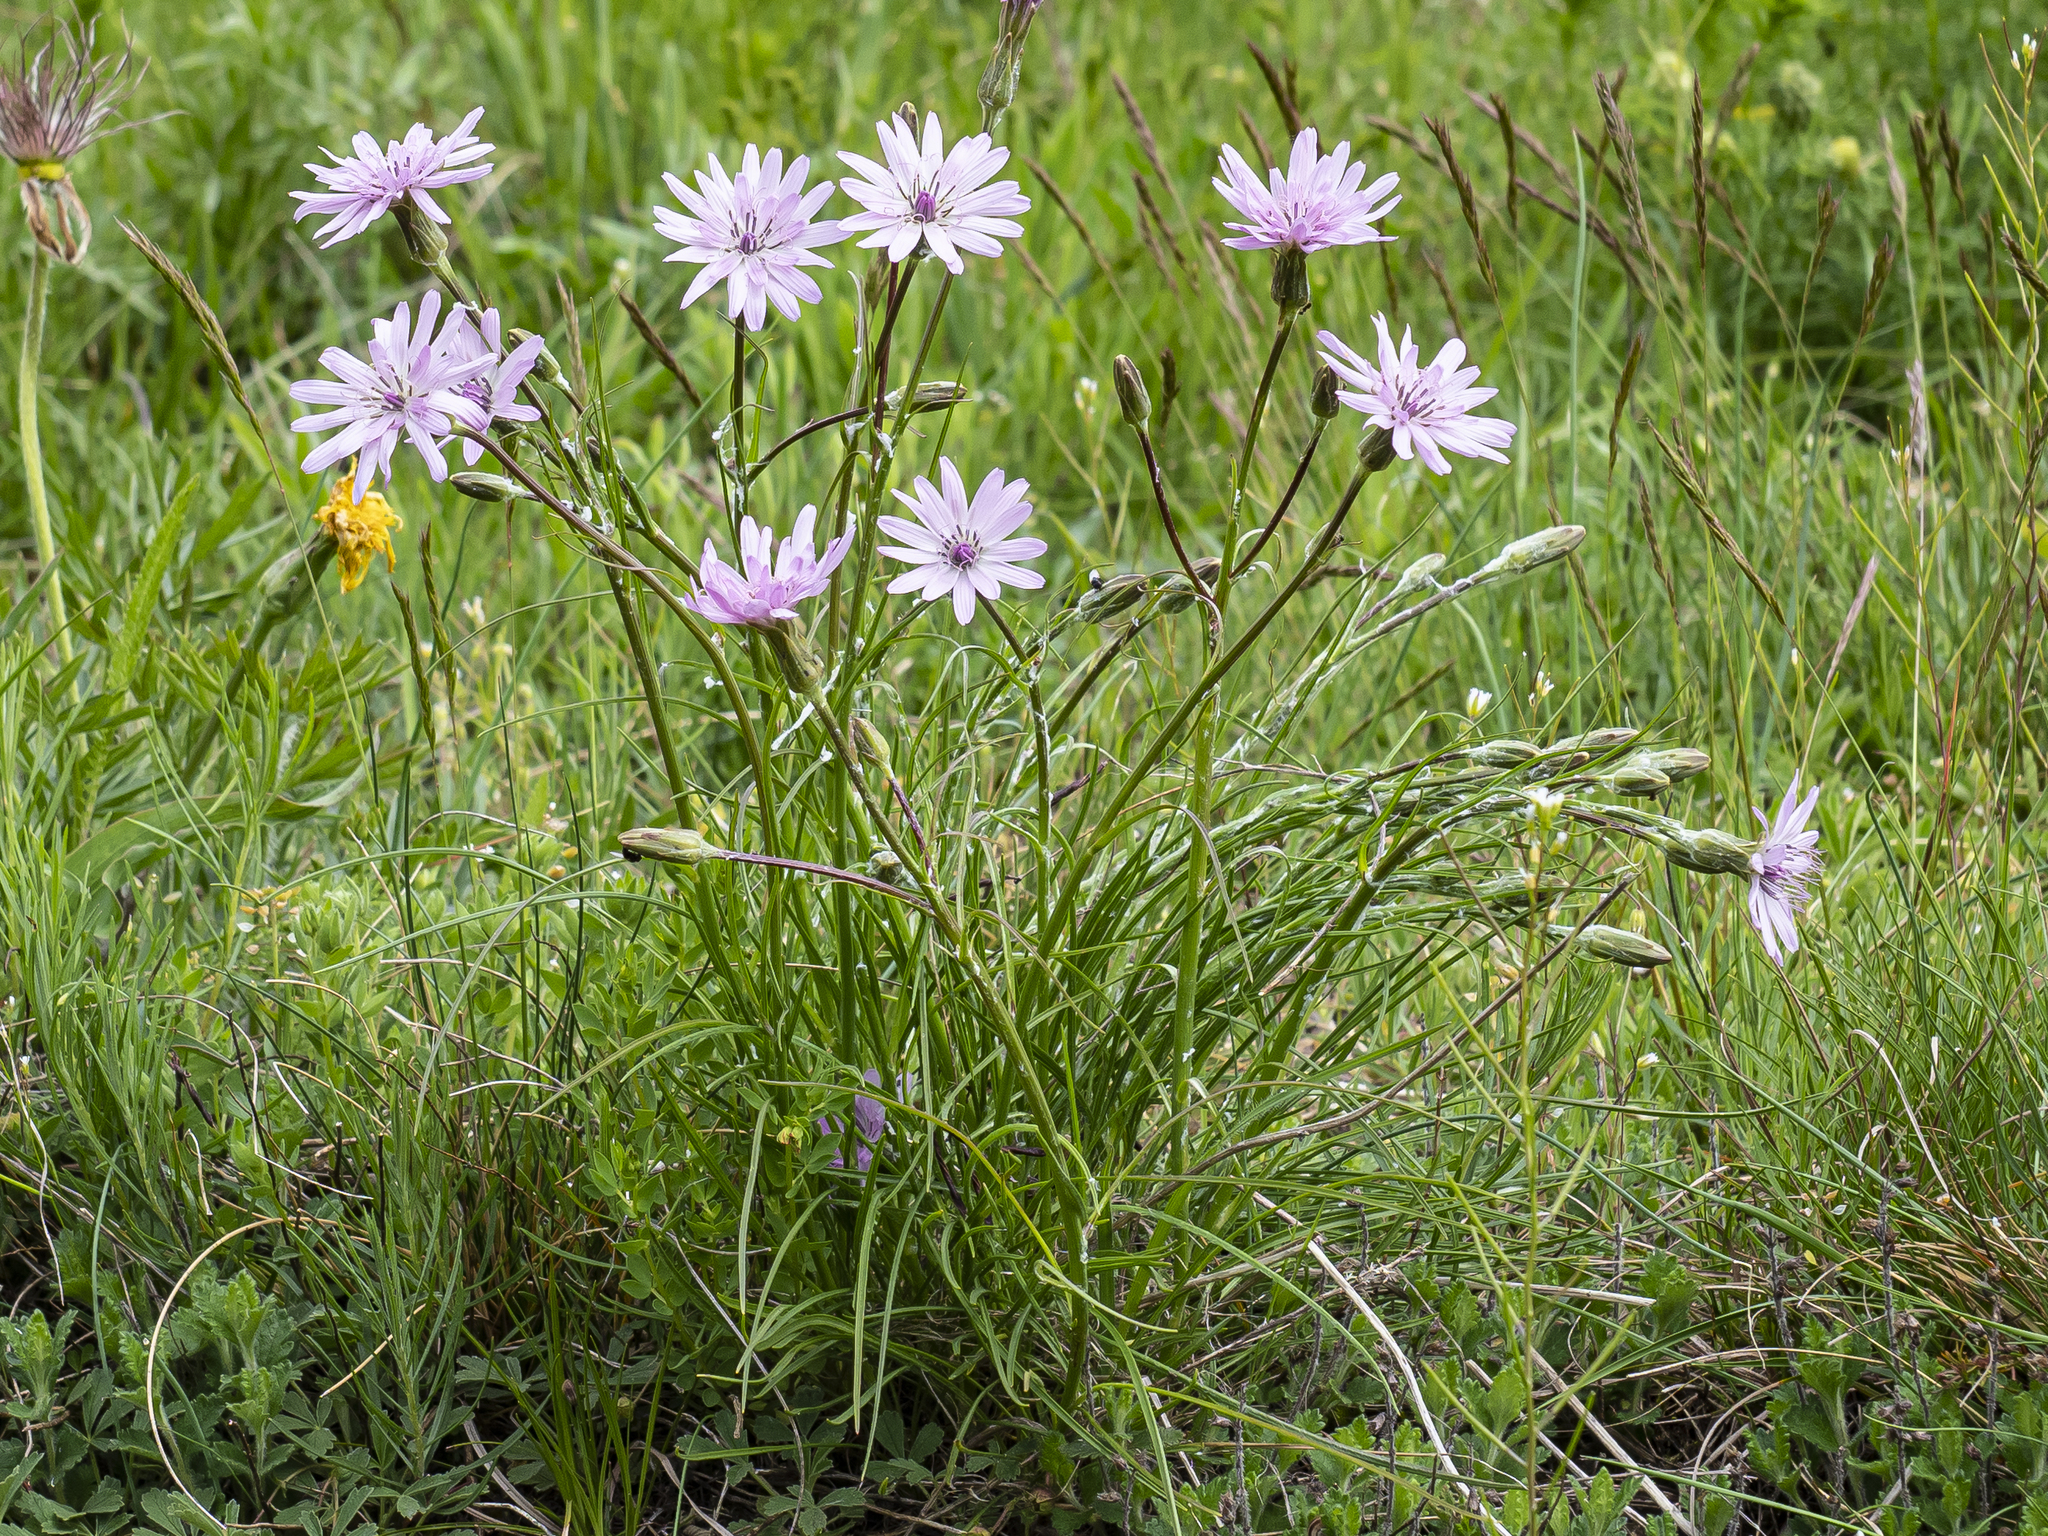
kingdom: Plantae
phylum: Tracheophyta
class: Magnoliopsida
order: Asterales
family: Asteraceae
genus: Scorzonera
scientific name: Scorzonera purpurea
